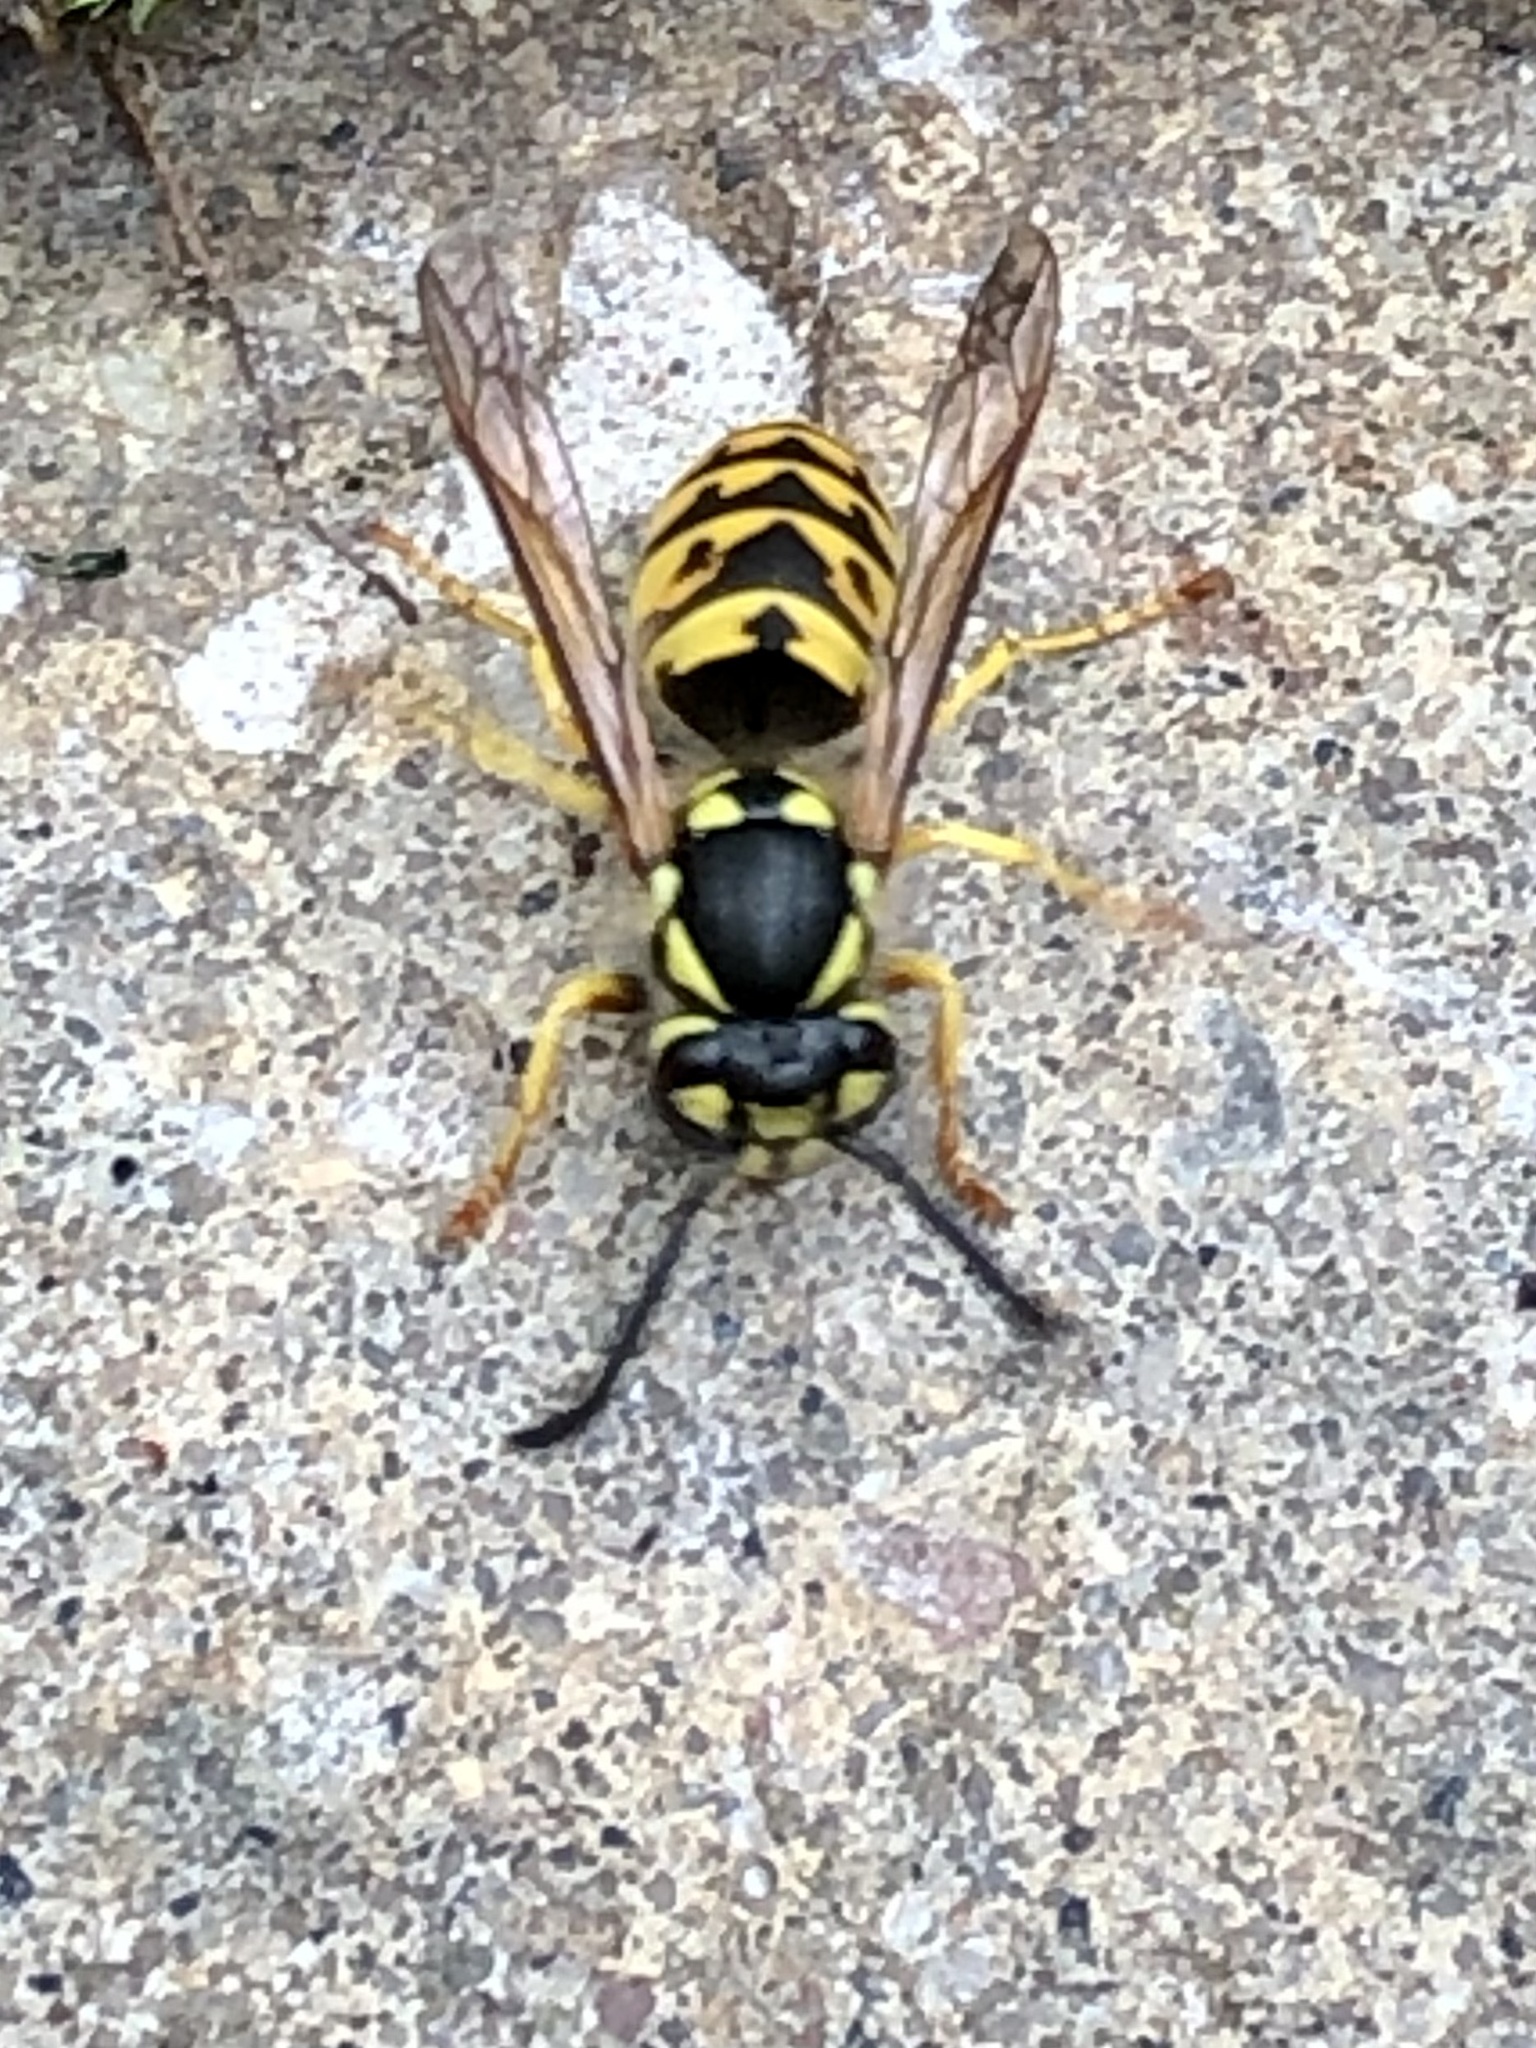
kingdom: Animalia
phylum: Arthropoda
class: Insecta
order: Hymenoptera
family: Vespidae
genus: Vespula
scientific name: Vespula germanica
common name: German wasp
